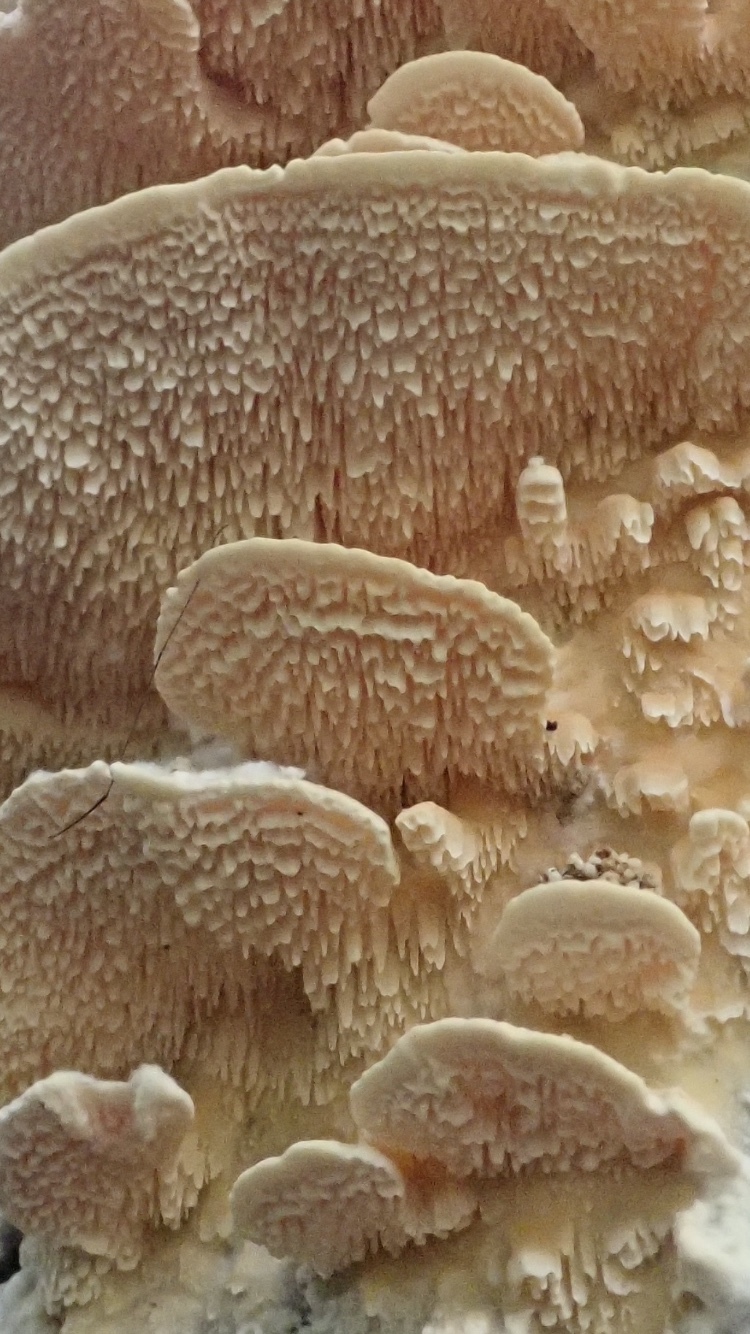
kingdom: Fungi
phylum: Basidiomycota
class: Agaricomycetes
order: Polyporales
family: Cerrenaceae
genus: Cerrena
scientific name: Cerrena zonata
